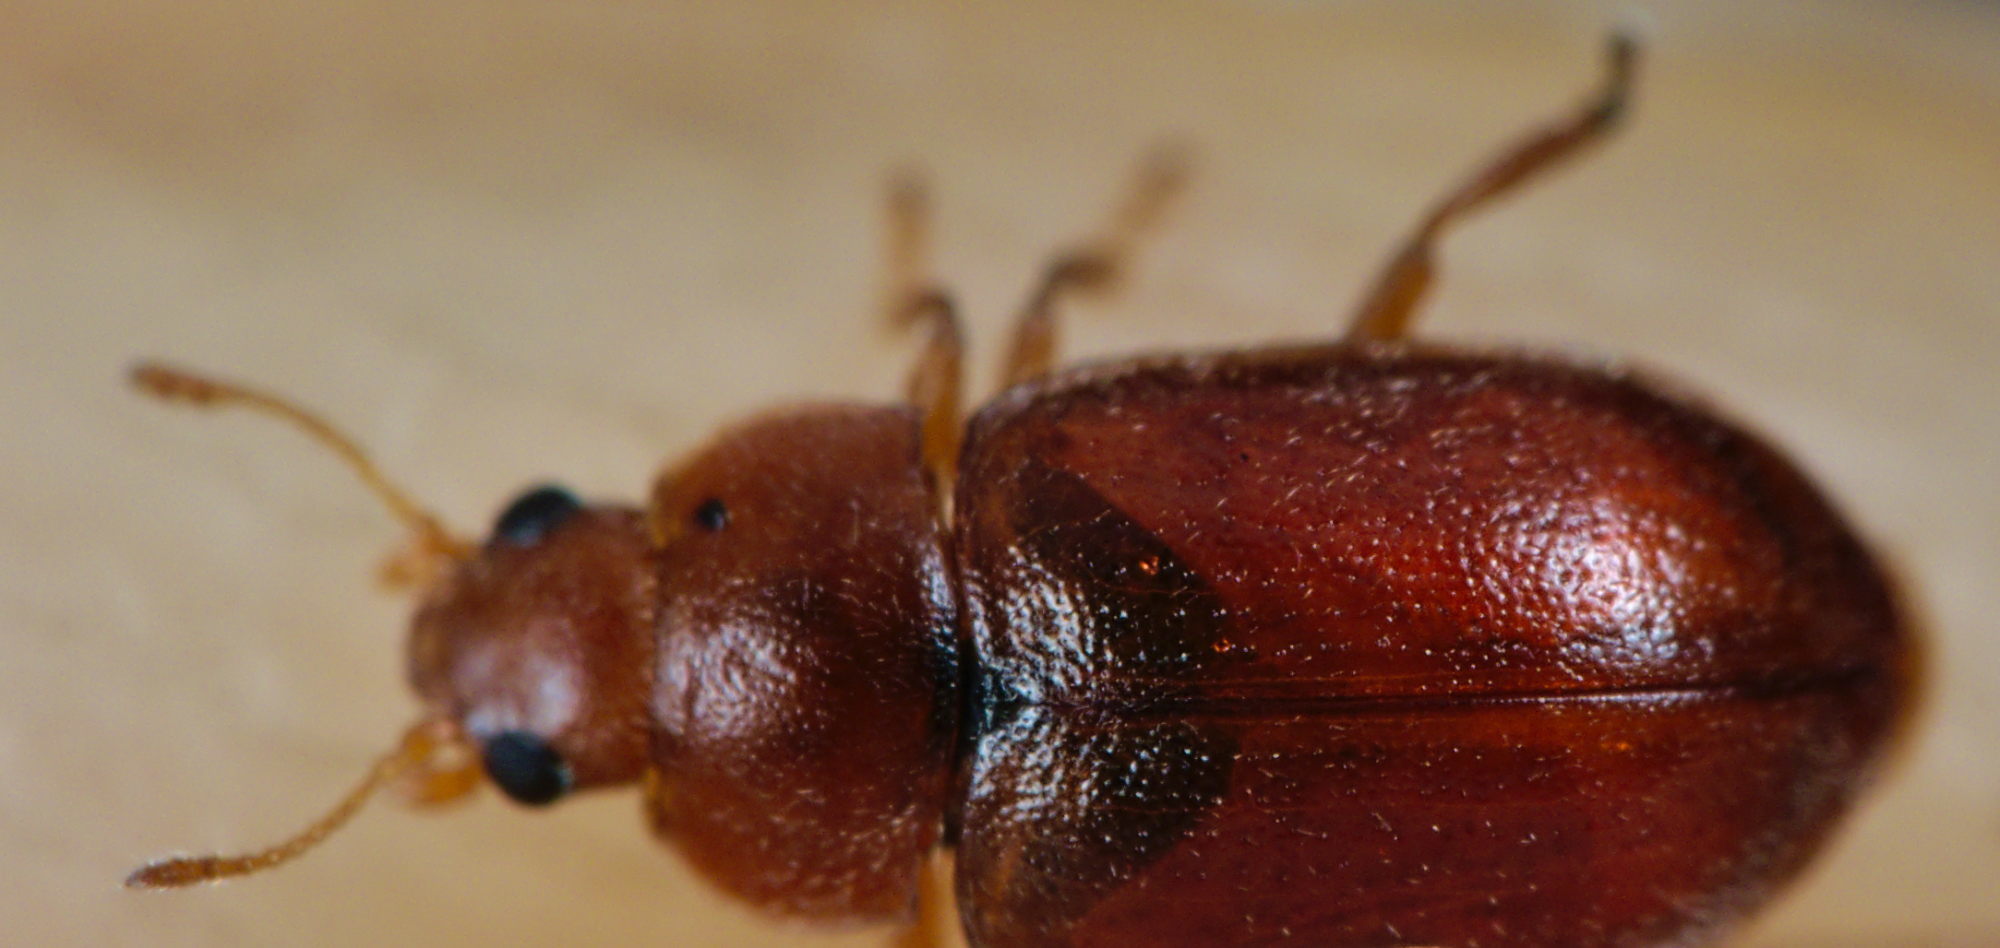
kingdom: Animalia
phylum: Arthropoda
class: Insecta
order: Coleoptera
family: Coccinellidae
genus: Coccidula
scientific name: Coccidula rufa
